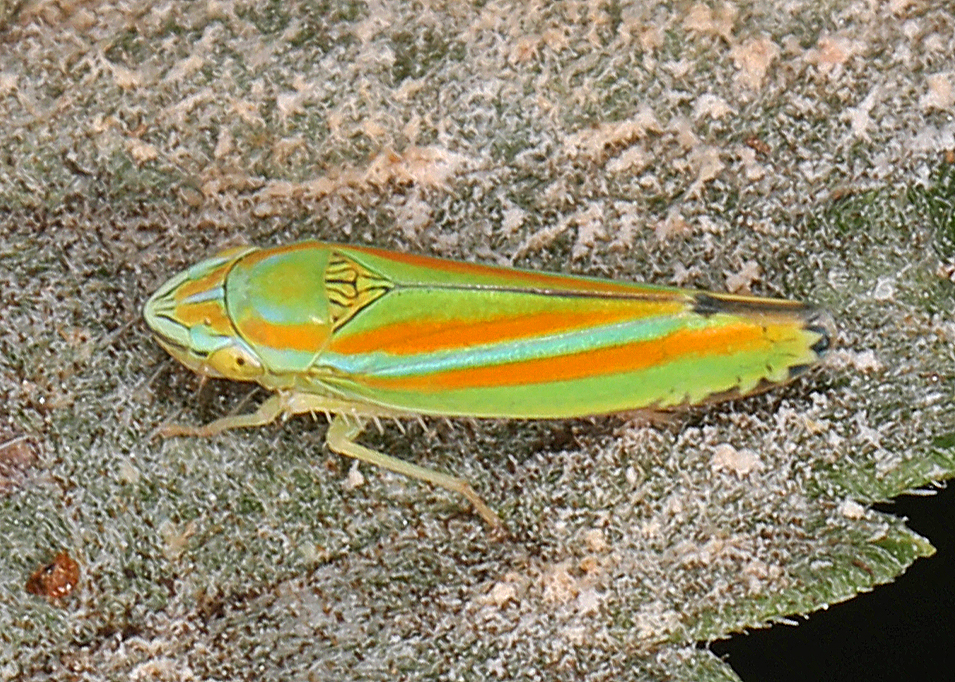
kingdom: Animalia
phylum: Arthropoda
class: Insecta
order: Hemiptera
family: Cicadellidae
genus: Graphocephala
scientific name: Graphocephala versuta
